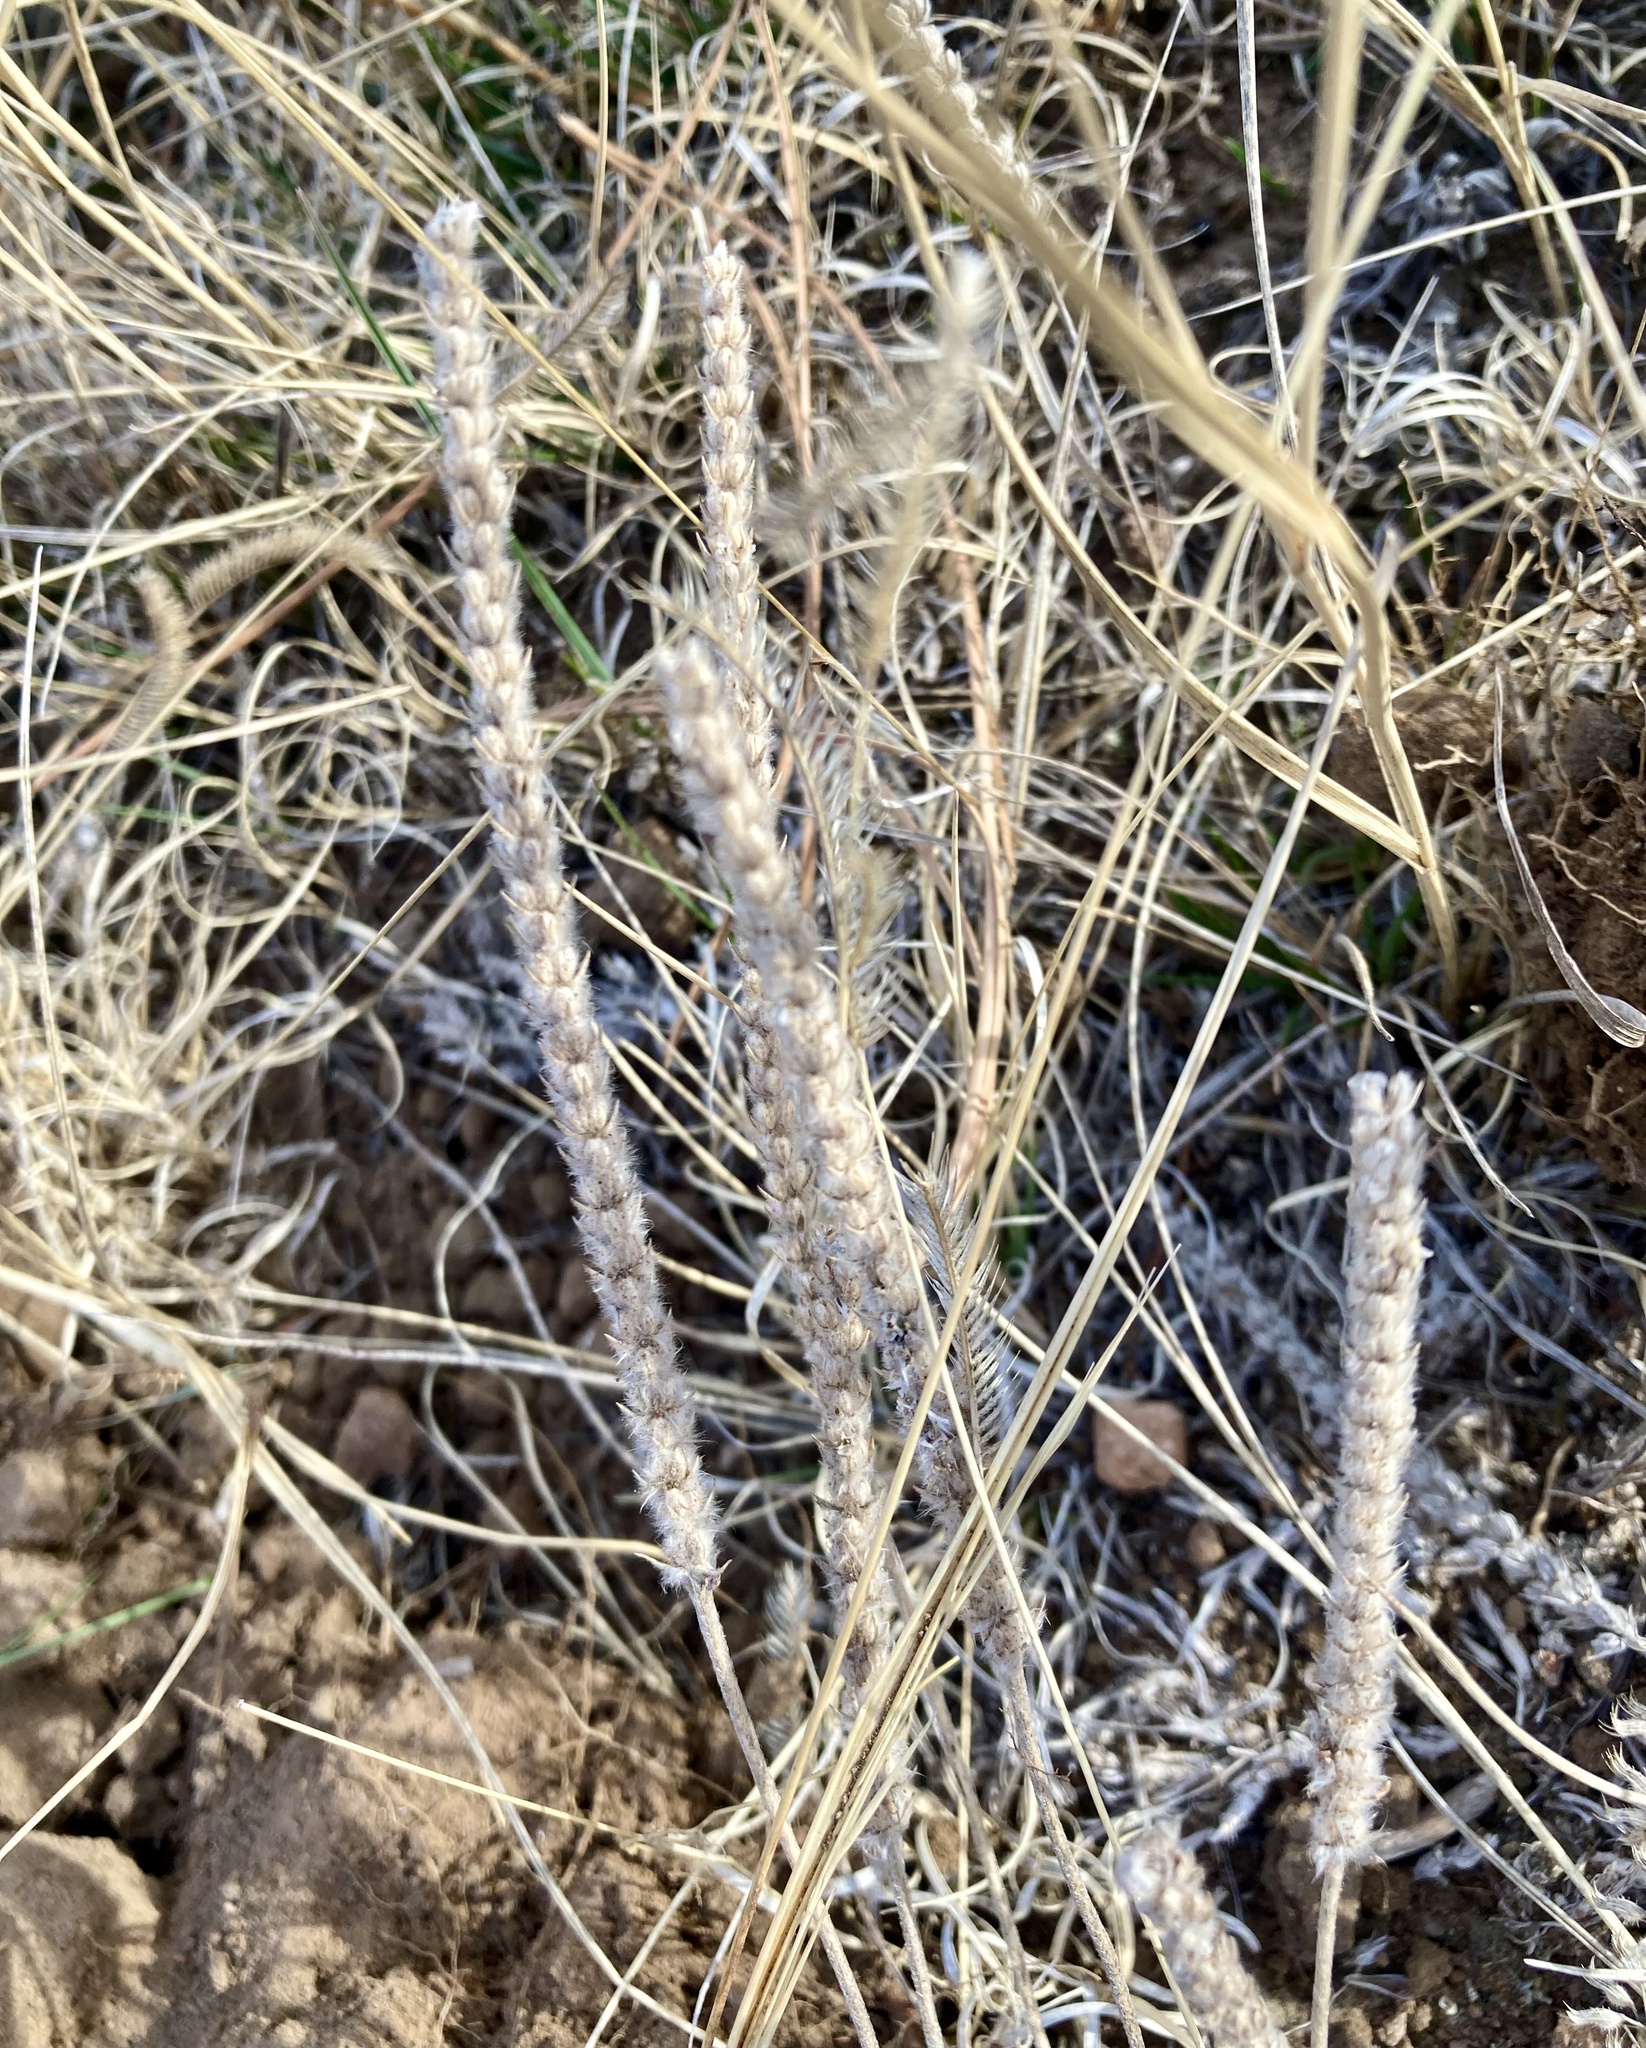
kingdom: Plantae
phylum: Tracheophyta
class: Magnoliopsida
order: Lamiales
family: Plantaginaceae
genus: Plantago
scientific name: Plantago patagonica
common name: Patagonia indian-wheat
